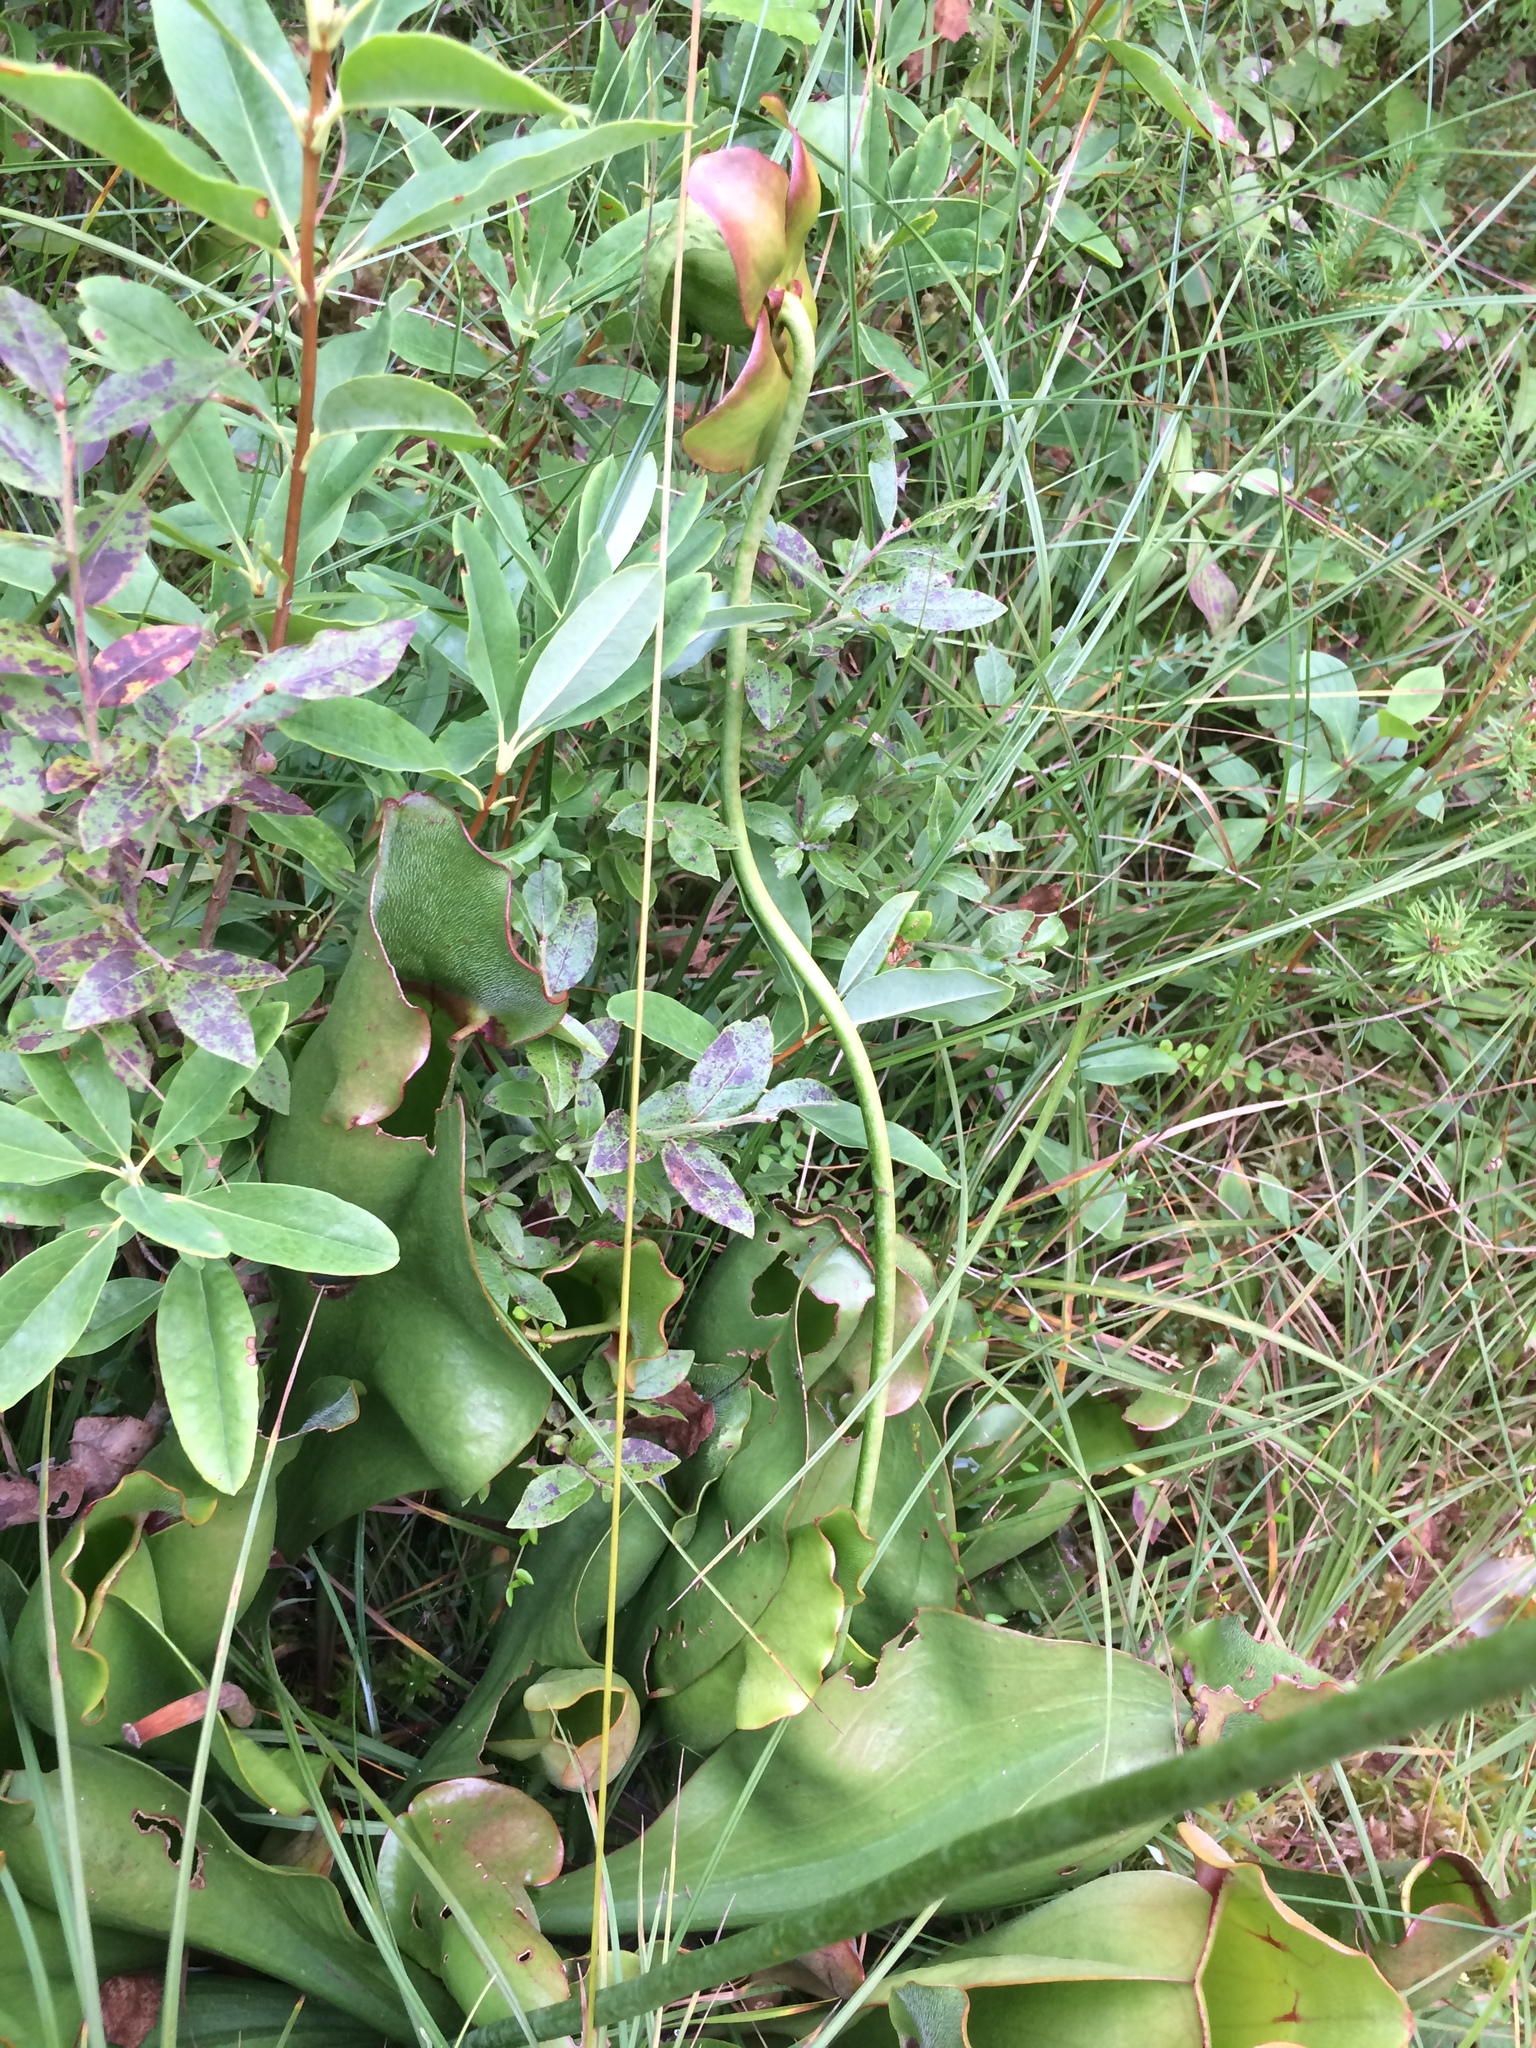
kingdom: Plantae
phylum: Tracheophyta
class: Magnoliopsida
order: Ericales
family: Sarraceniaceae
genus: Sarracenia
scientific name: Sarracenia purpurea
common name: Pitcherplant
